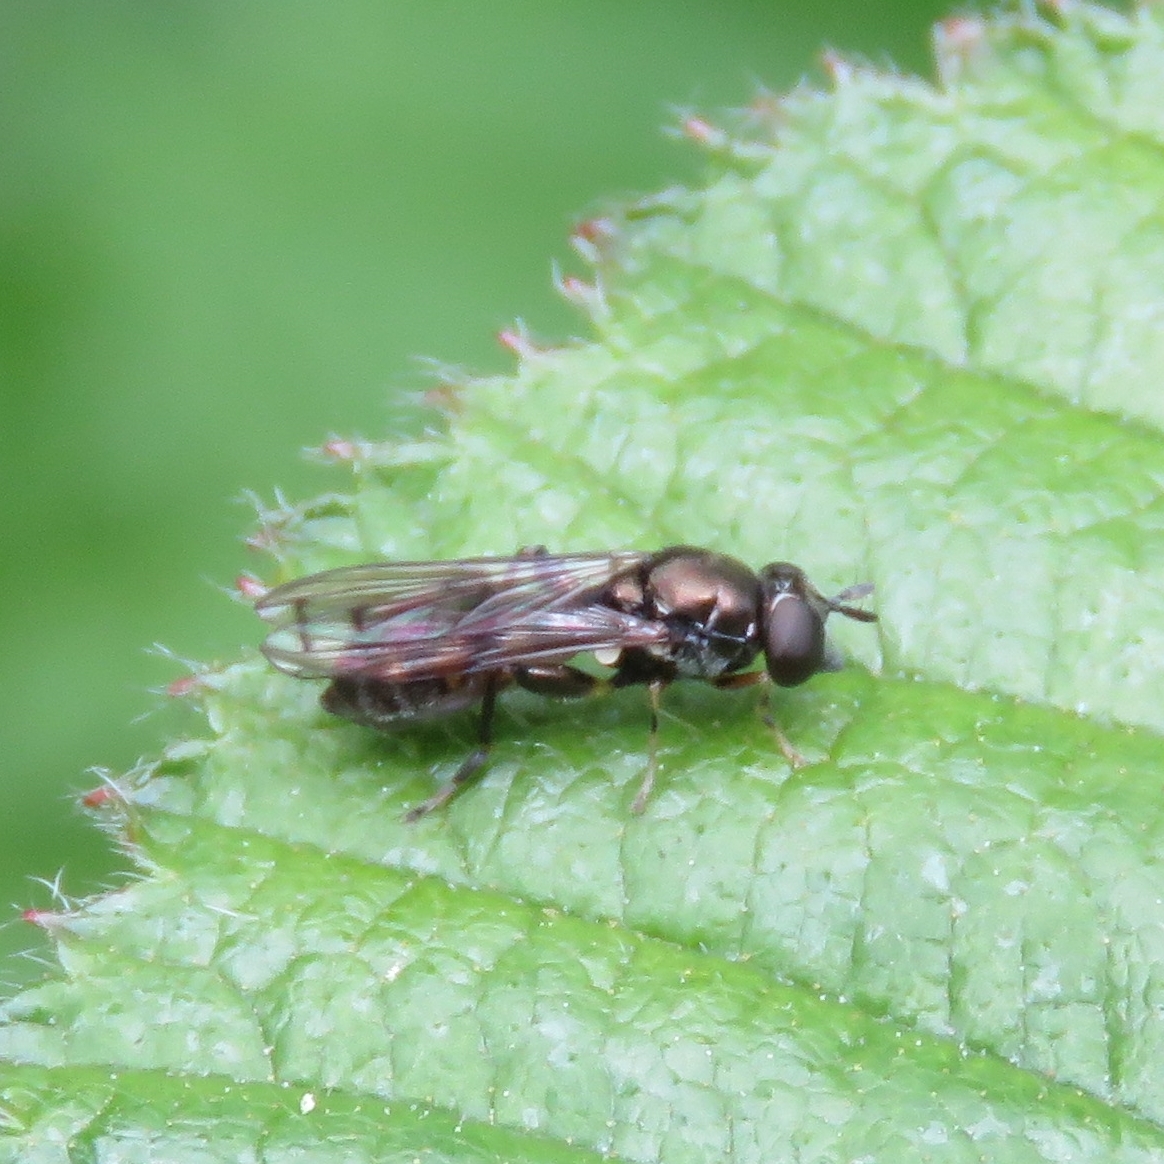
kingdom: Animalia
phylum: Arthropoda
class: Insecta
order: Diptera
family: Syrphidae
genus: Neoascia
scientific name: Neoascia
